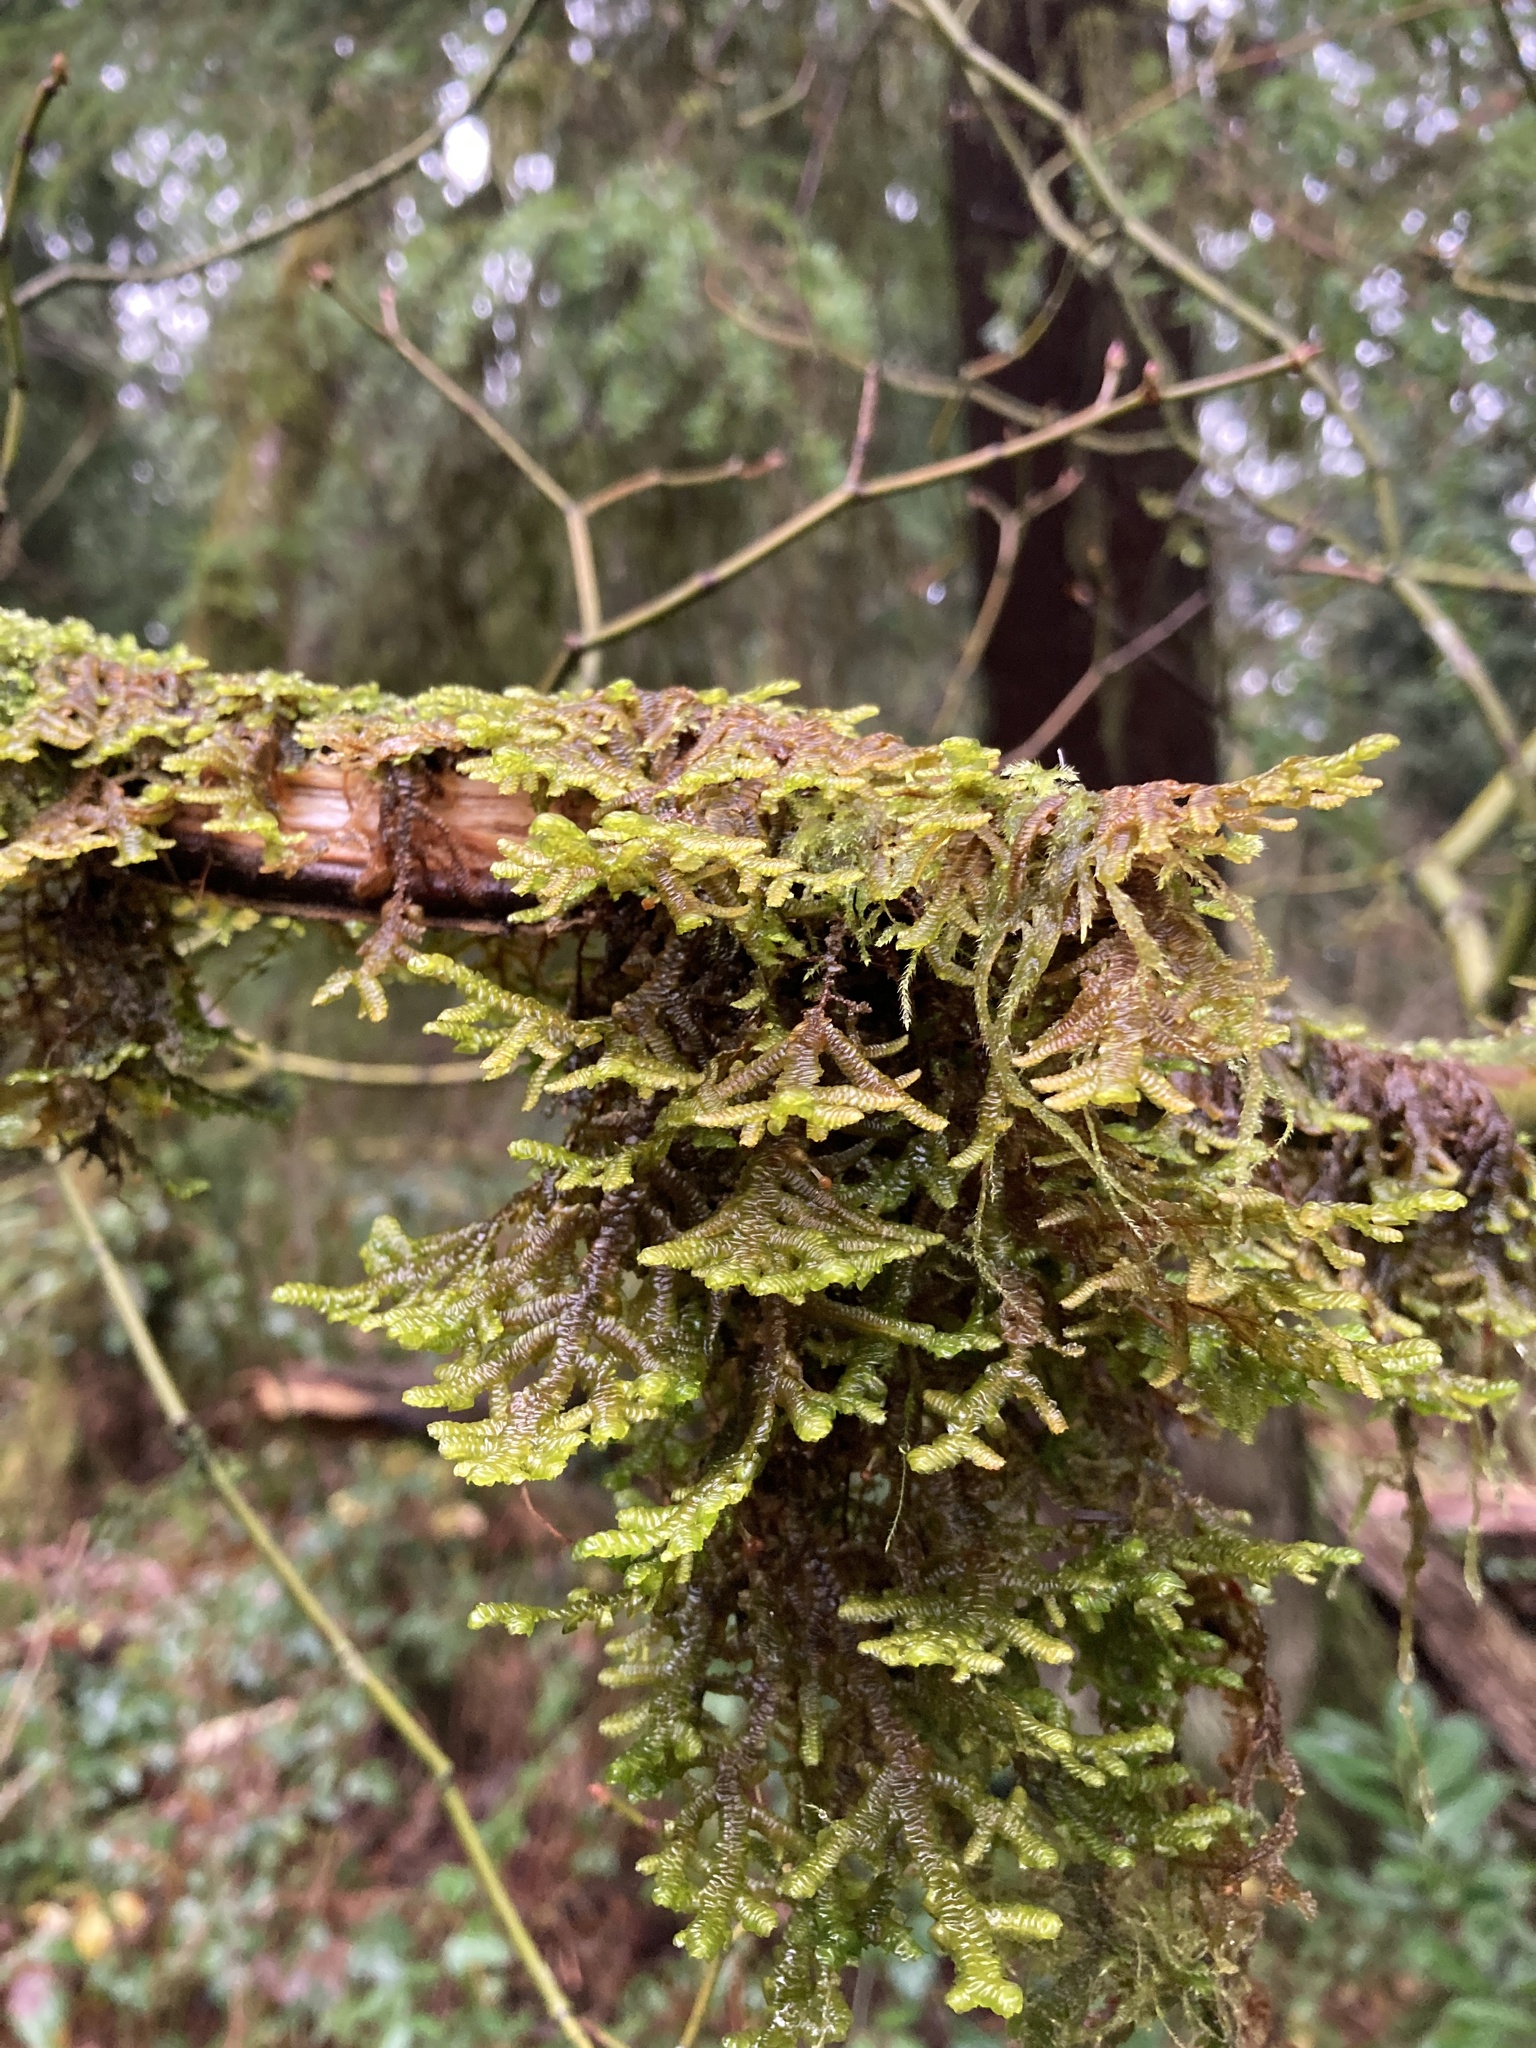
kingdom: Plantae
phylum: Marchantiophyta
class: Jungermanniopsida
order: Porellales
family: Porellaceae
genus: Porella
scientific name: Porella navicularis
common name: Tree ruffle liverwort
